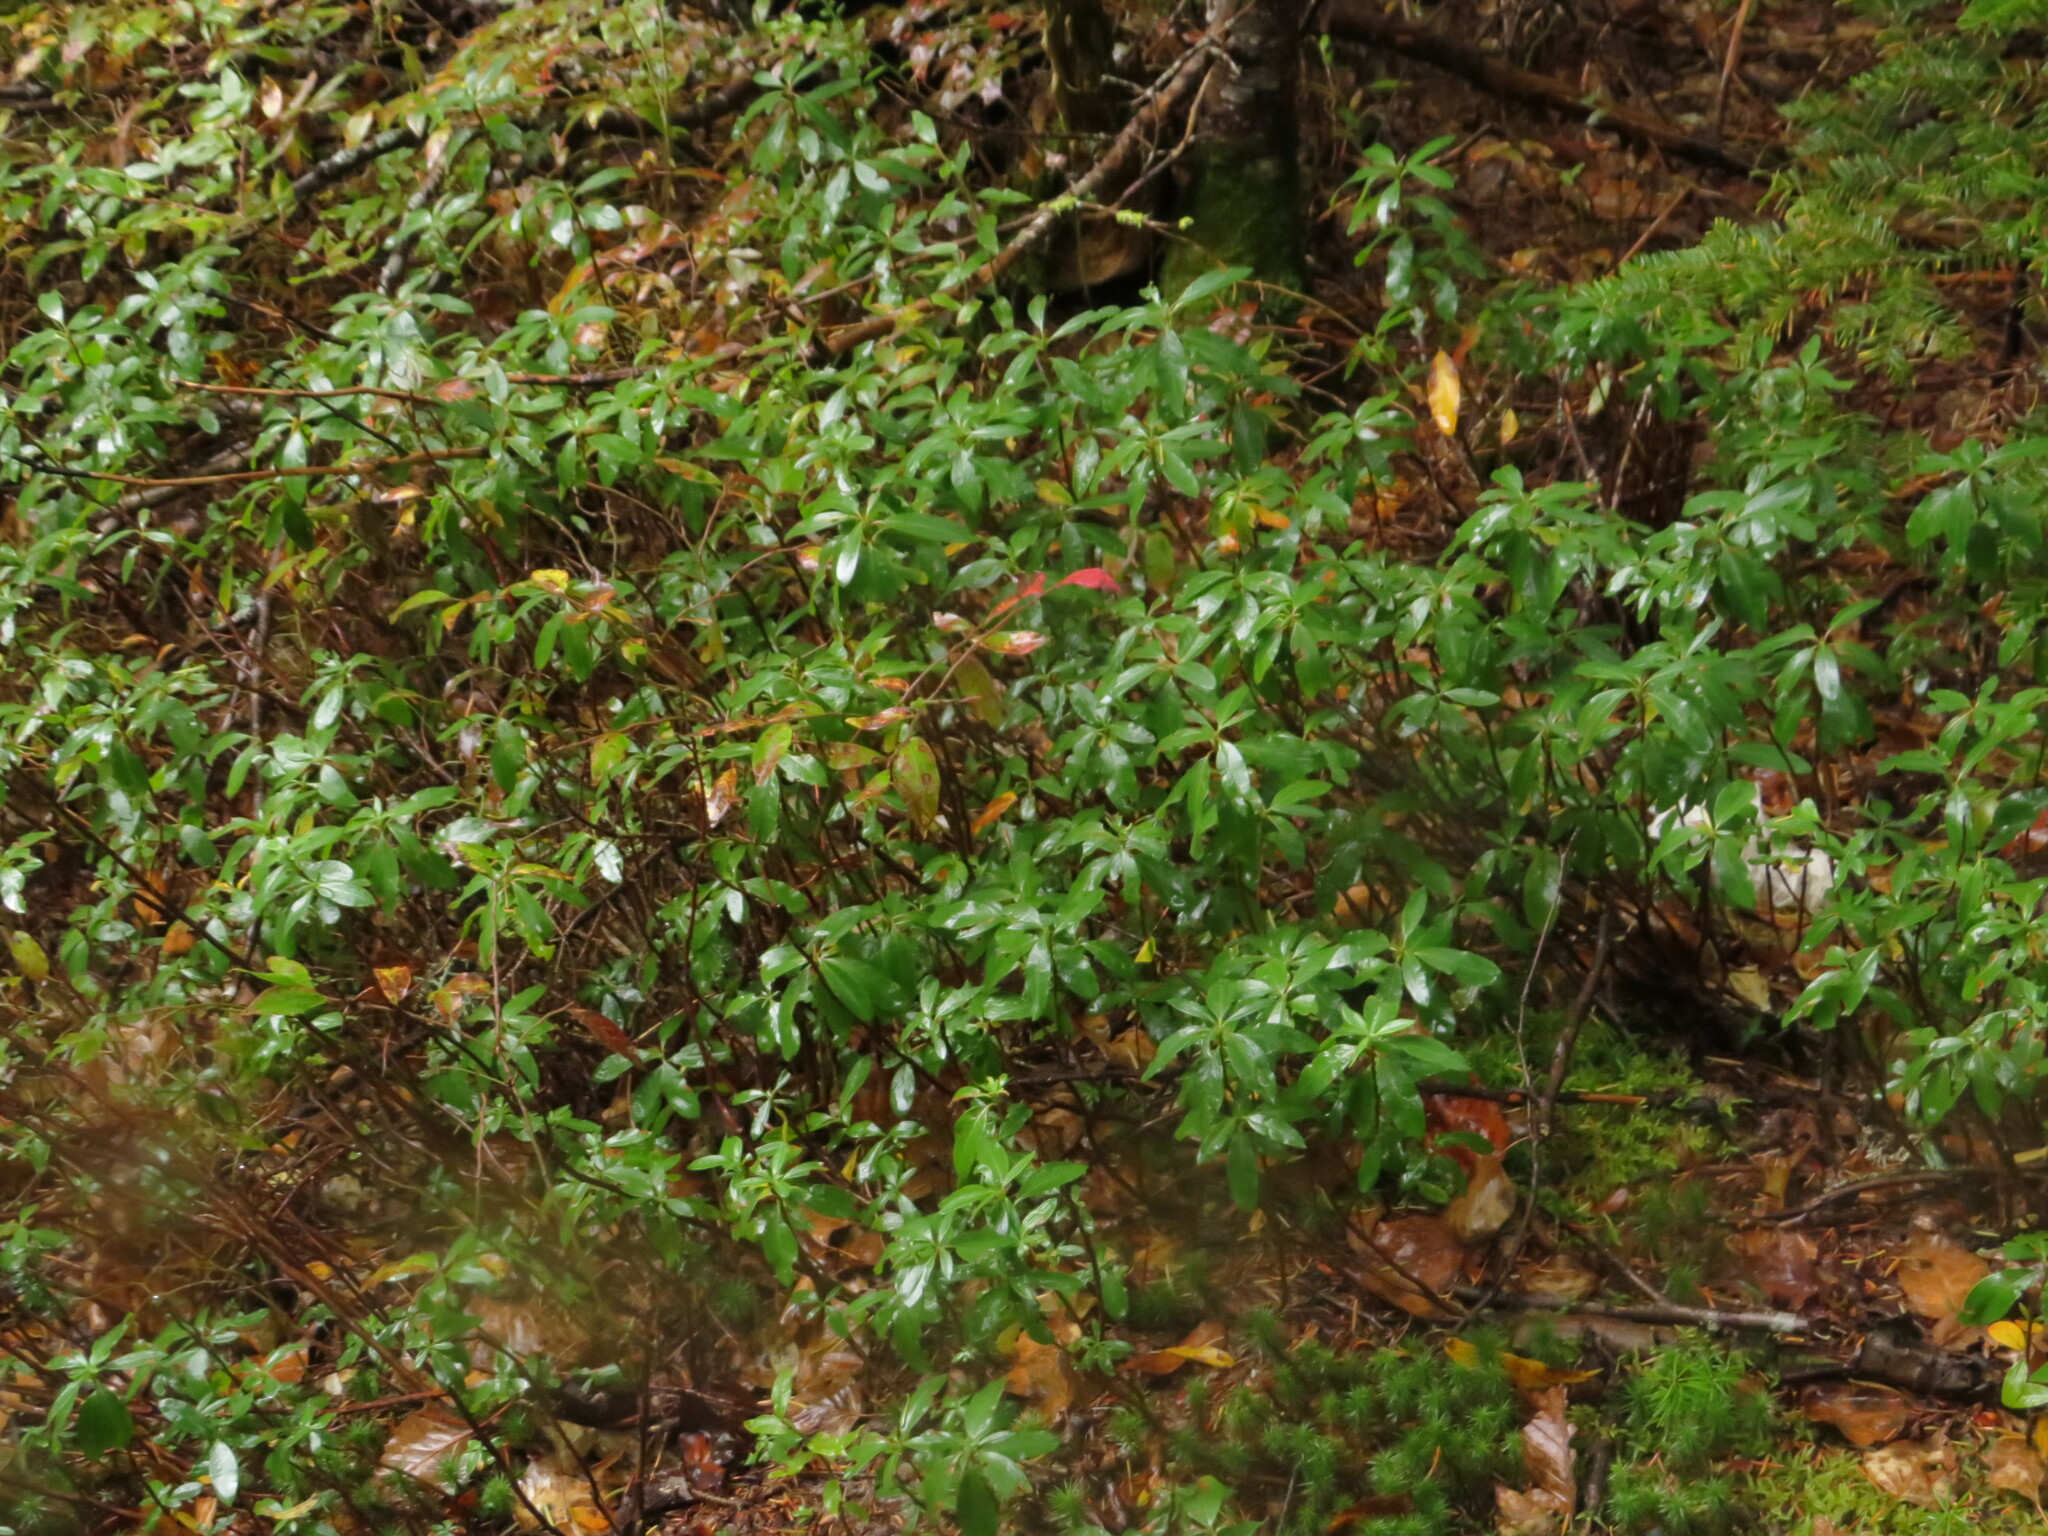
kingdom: Plantae
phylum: Tracheophyta
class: Magnoliopsida
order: Ericales
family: Ericaceae
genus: Kalmia
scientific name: Kalmia angustifolia
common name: Sheep-laurel
